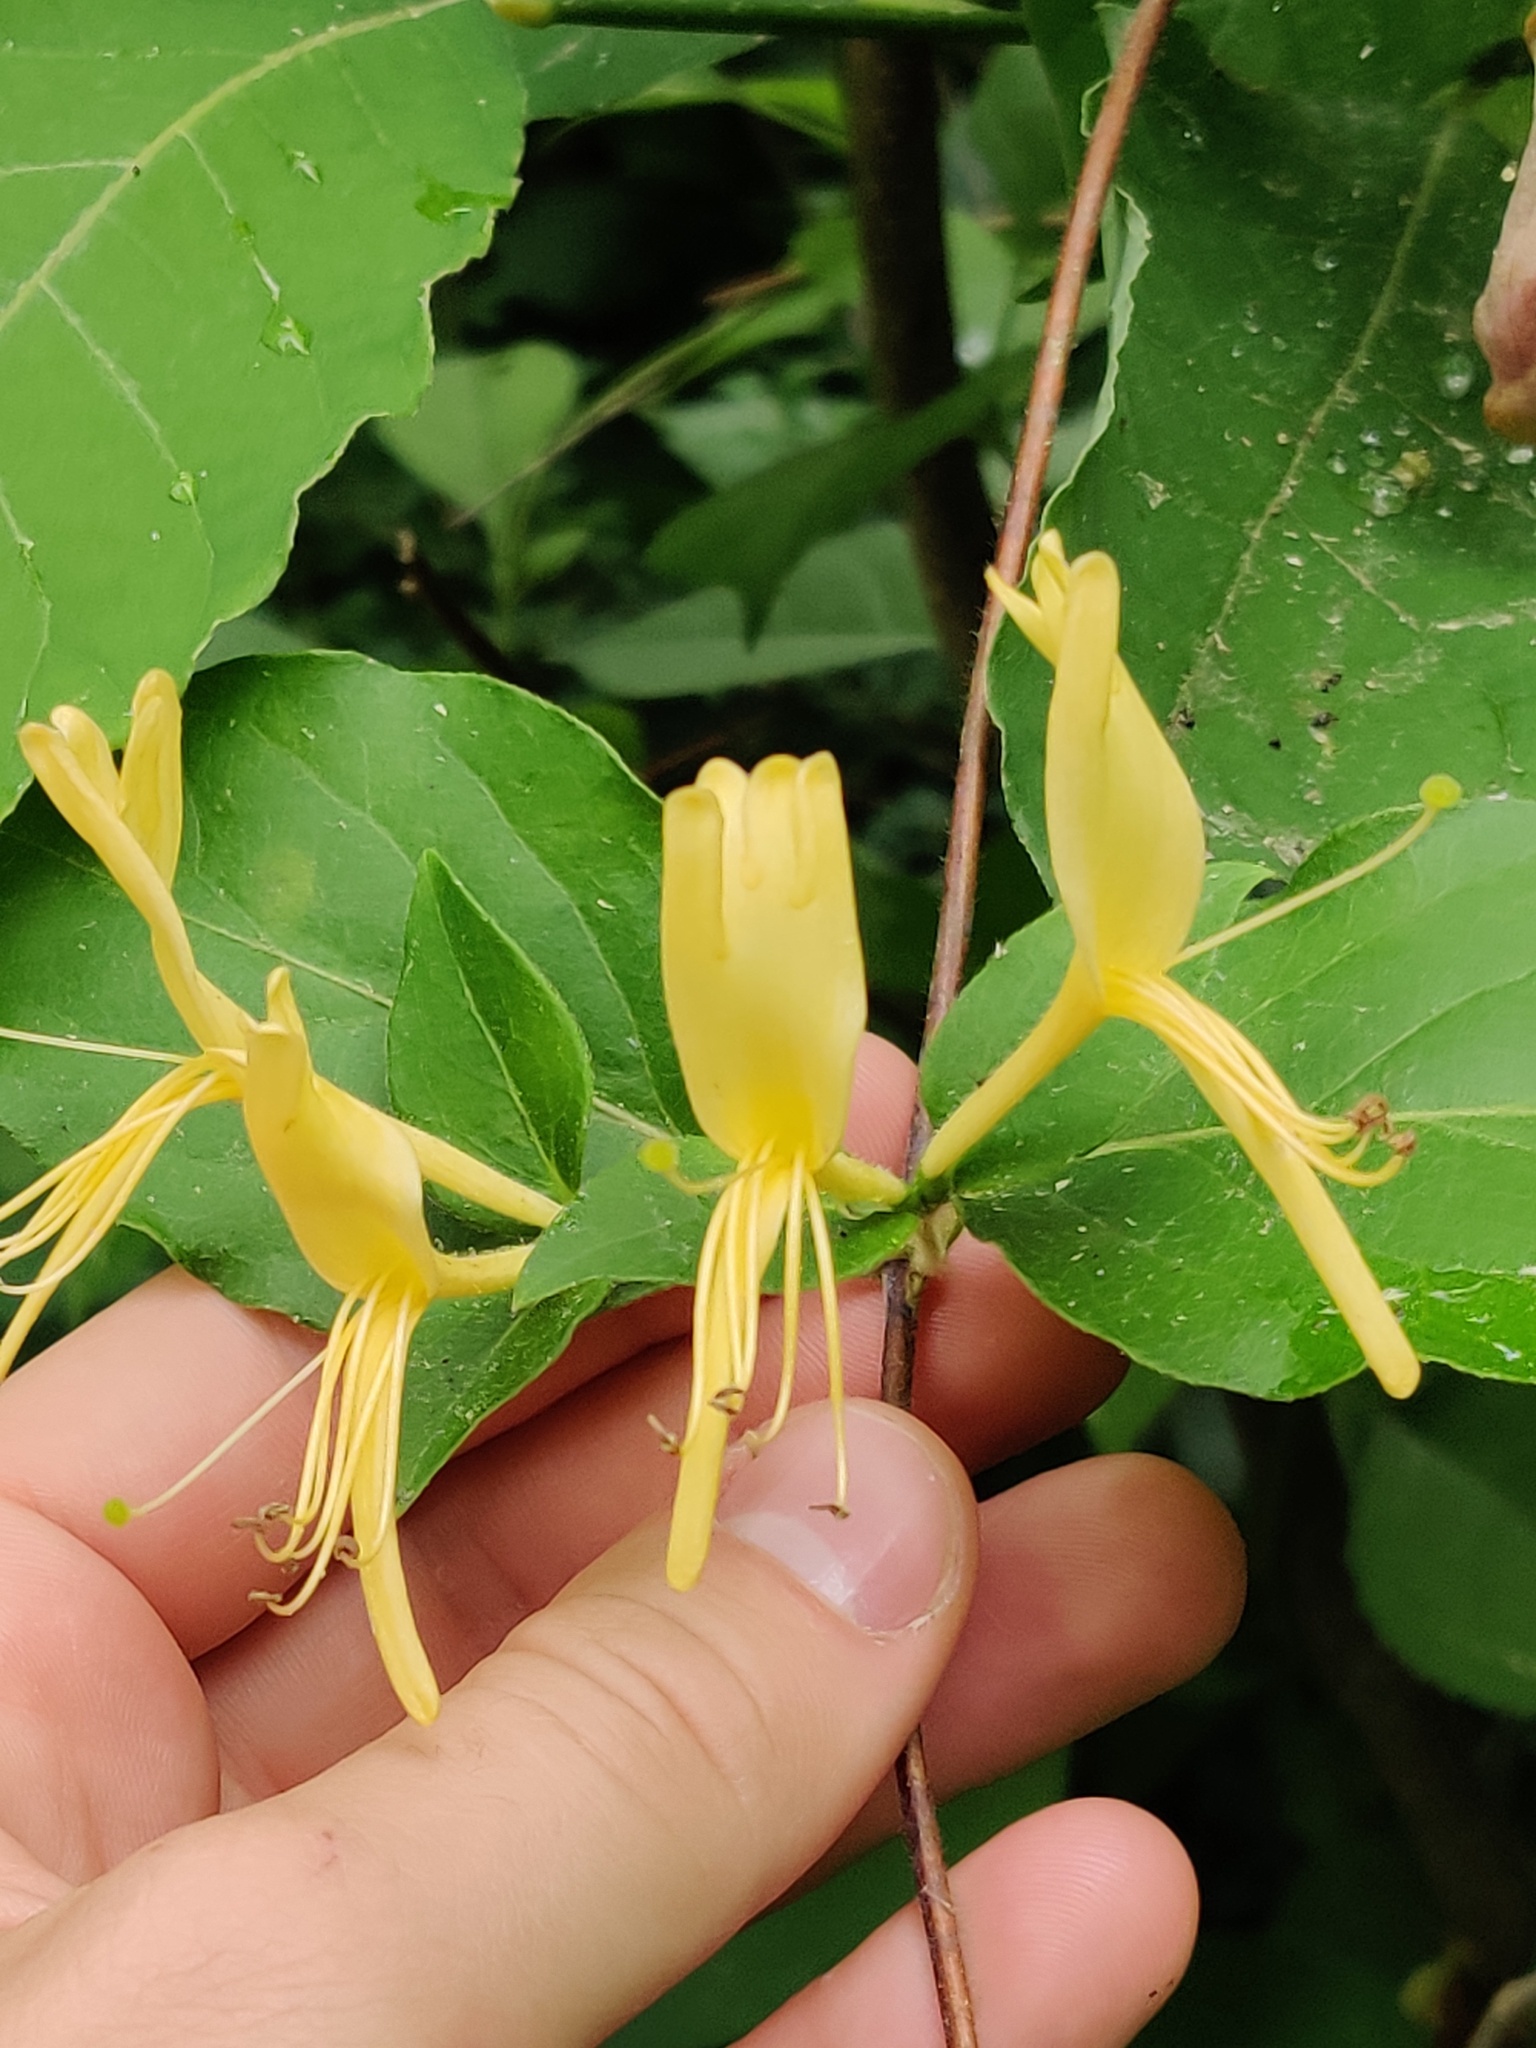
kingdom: Plantae
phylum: Tracheophyta
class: Magnoliopsida
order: Dipsacales
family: Caprifoliaceae
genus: Lonicera
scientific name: Lonicera japonica
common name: Japanese honeysuckle
